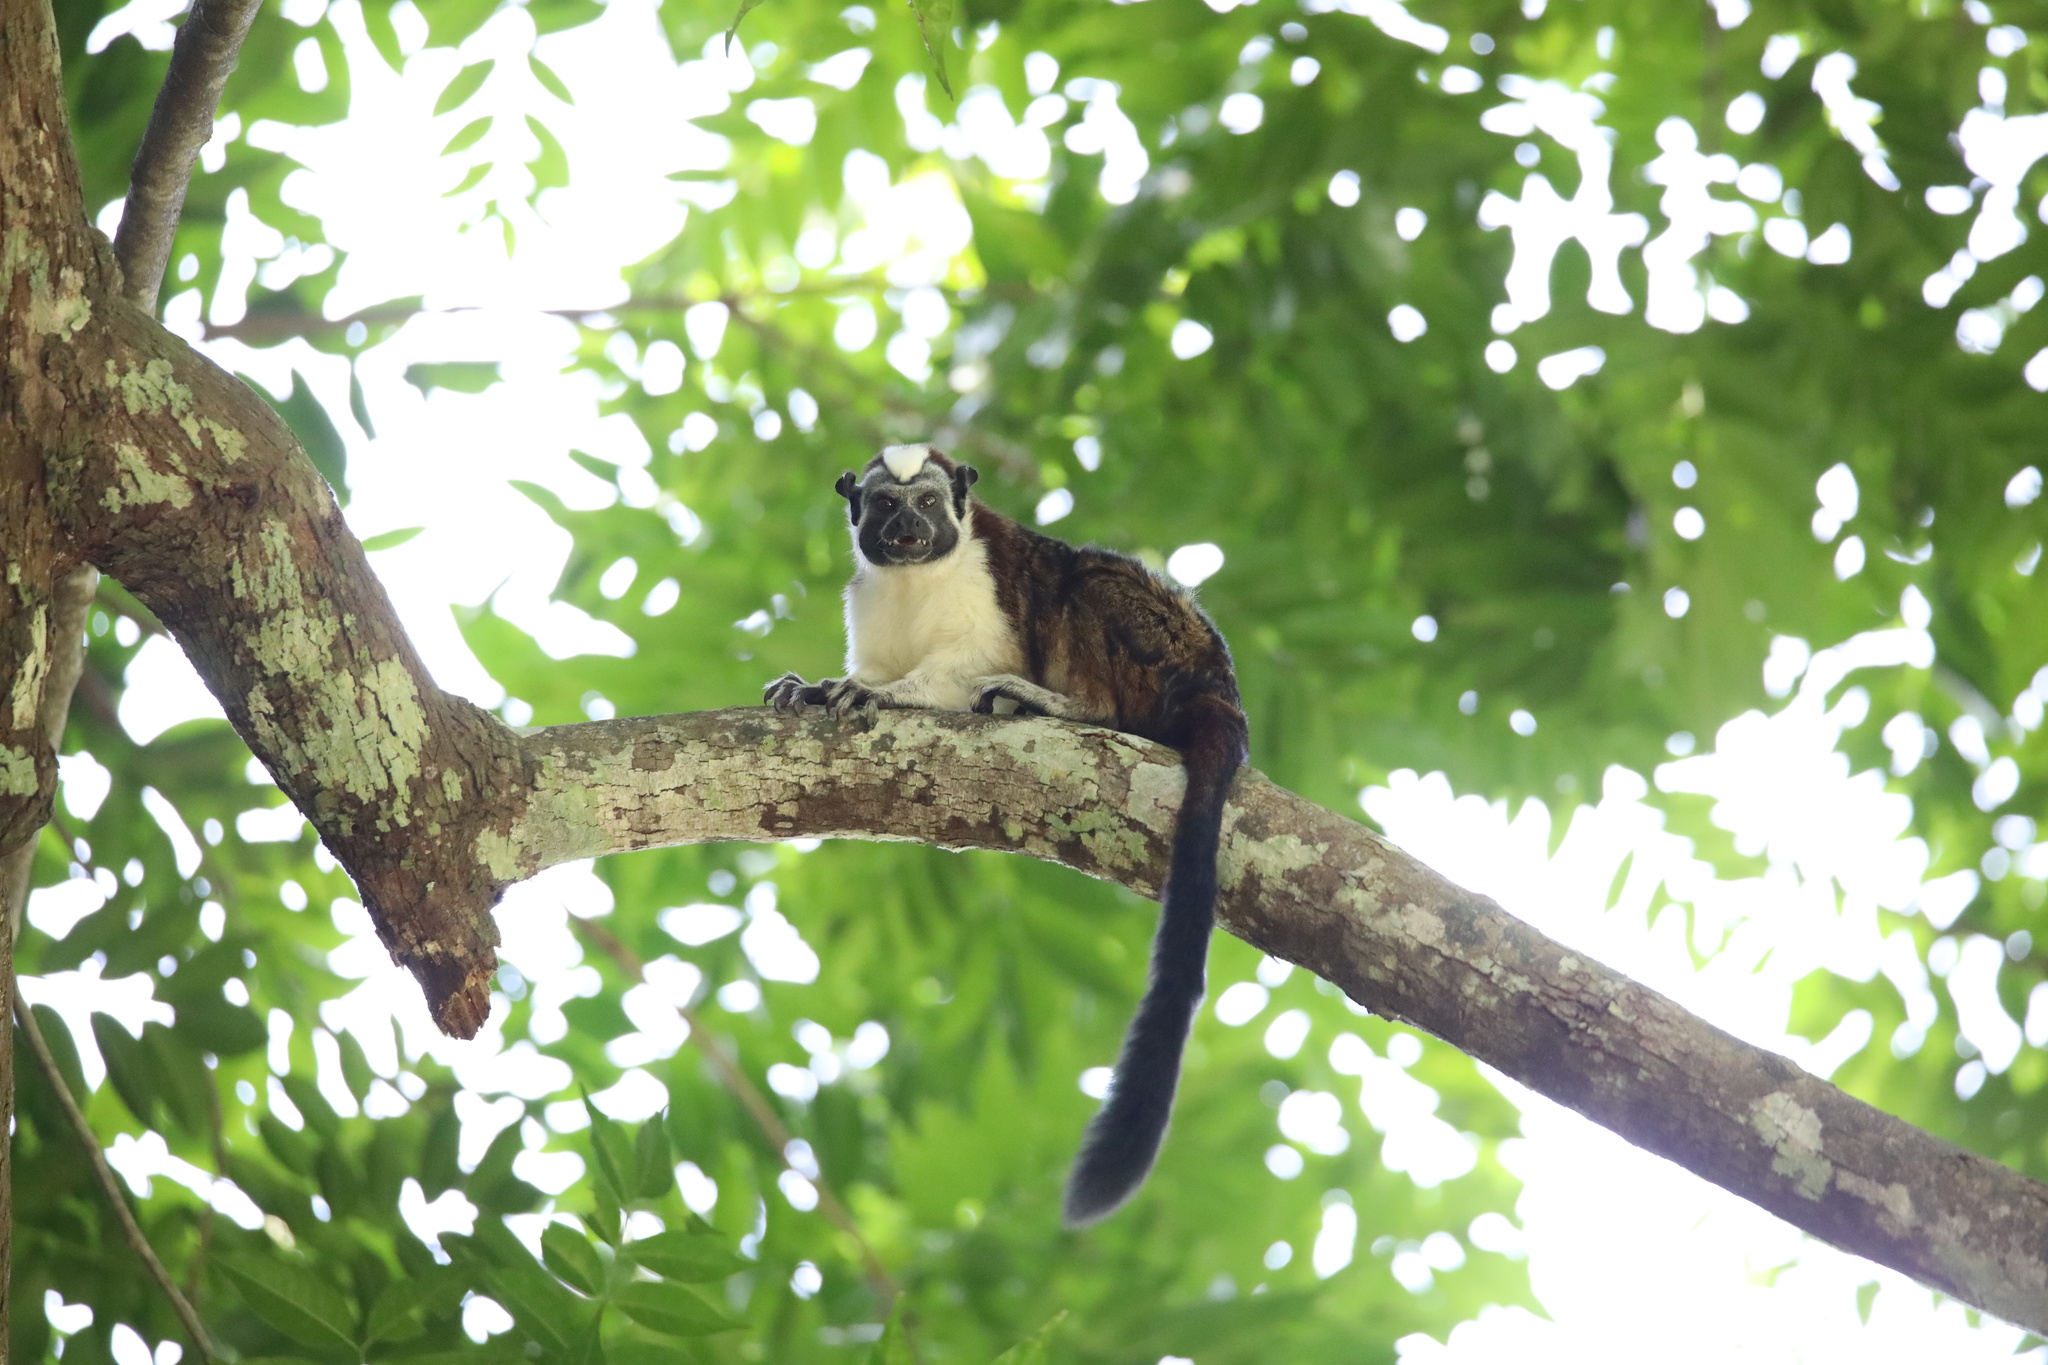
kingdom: Animalia
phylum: Chordata
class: Mammalia
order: Primates
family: Callitrichidae
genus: Saguinus
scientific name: Saguinus geoffroyi
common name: Geoffroy s tamarin
